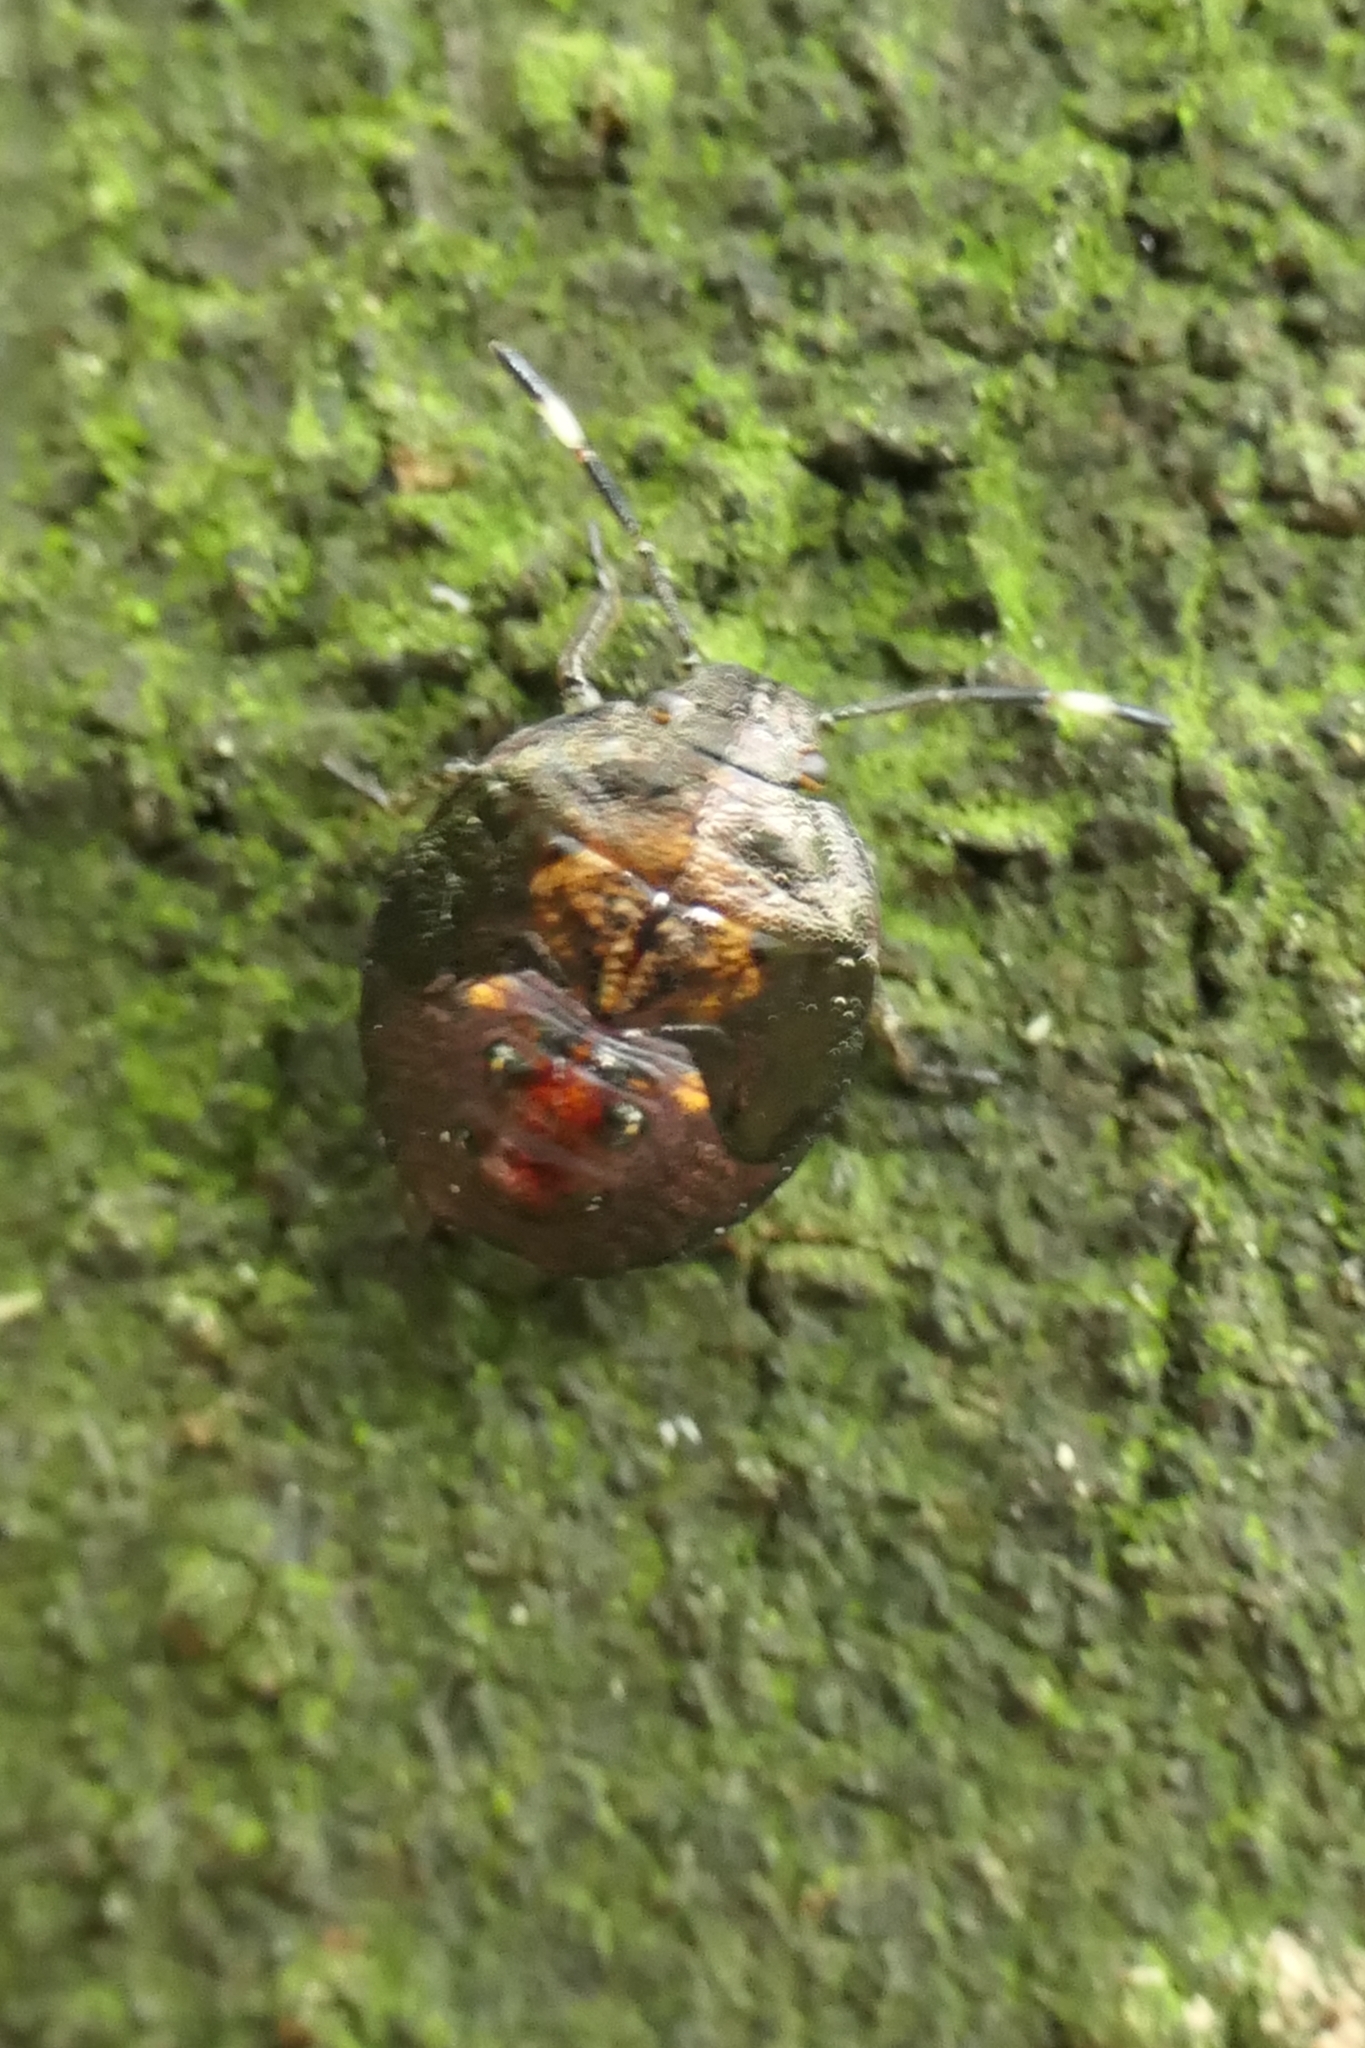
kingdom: Animalia
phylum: Arthropoda
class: Insecta
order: Hemiptera
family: Pentatomidae
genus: Monteithiella
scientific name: Monteithiella
